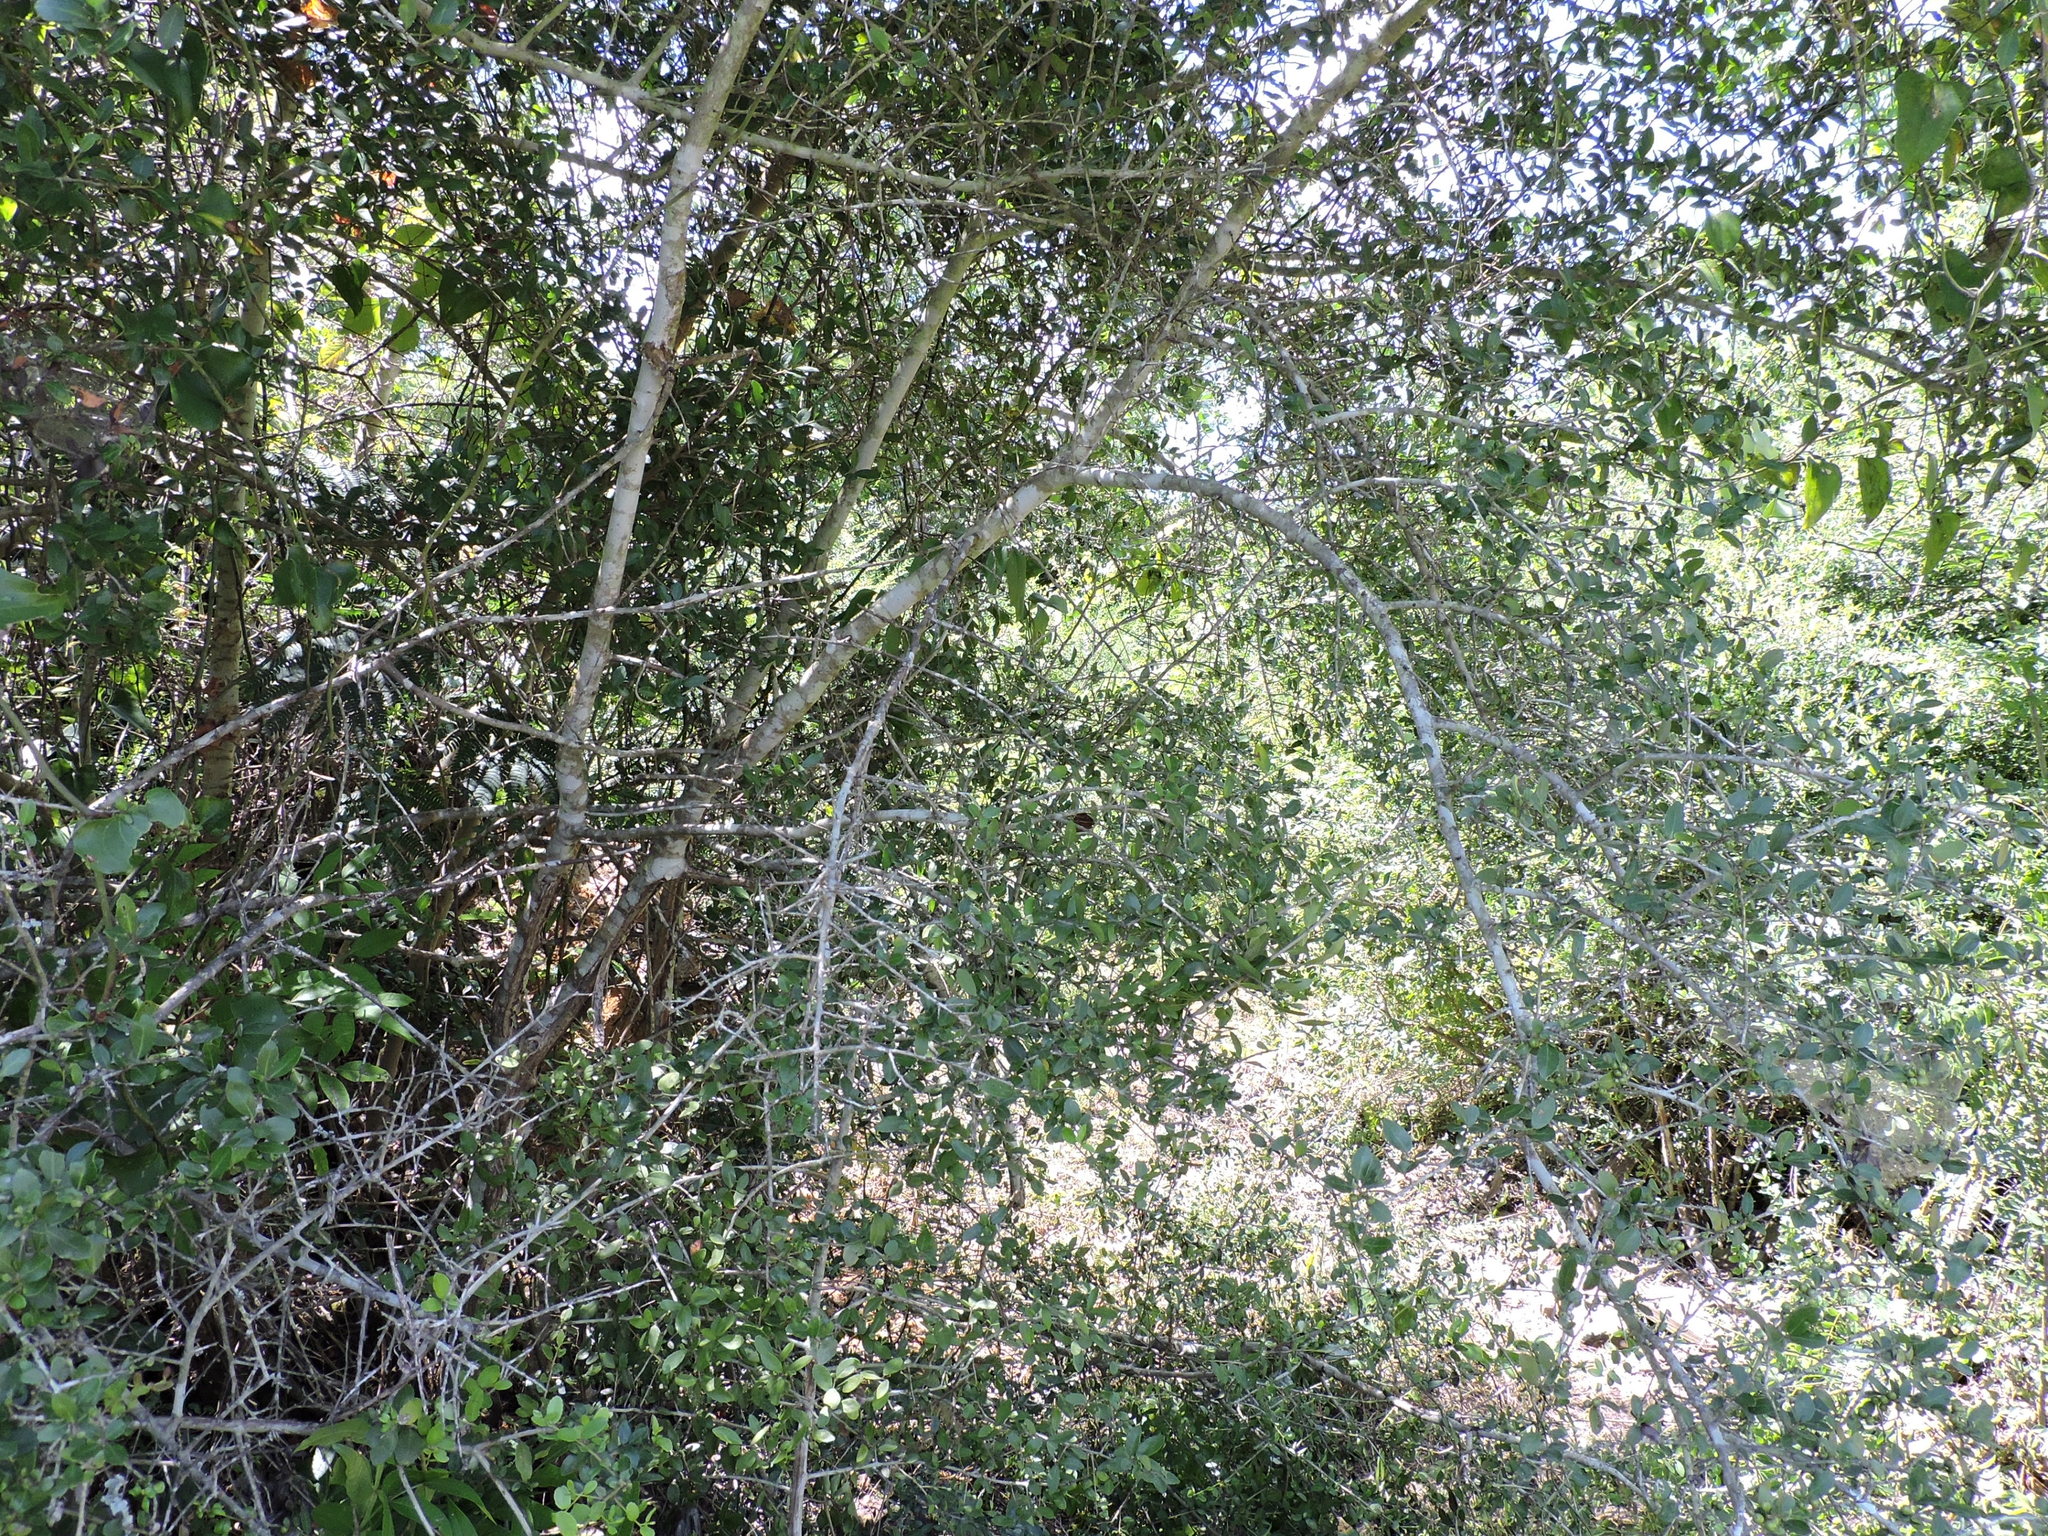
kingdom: Plantae
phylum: Tracheophyta
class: Magnoliopsida
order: Aquifoliales
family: Aquifoliaceae
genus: Ilex
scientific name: Ilex vomitoria
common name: Yaupon holly
